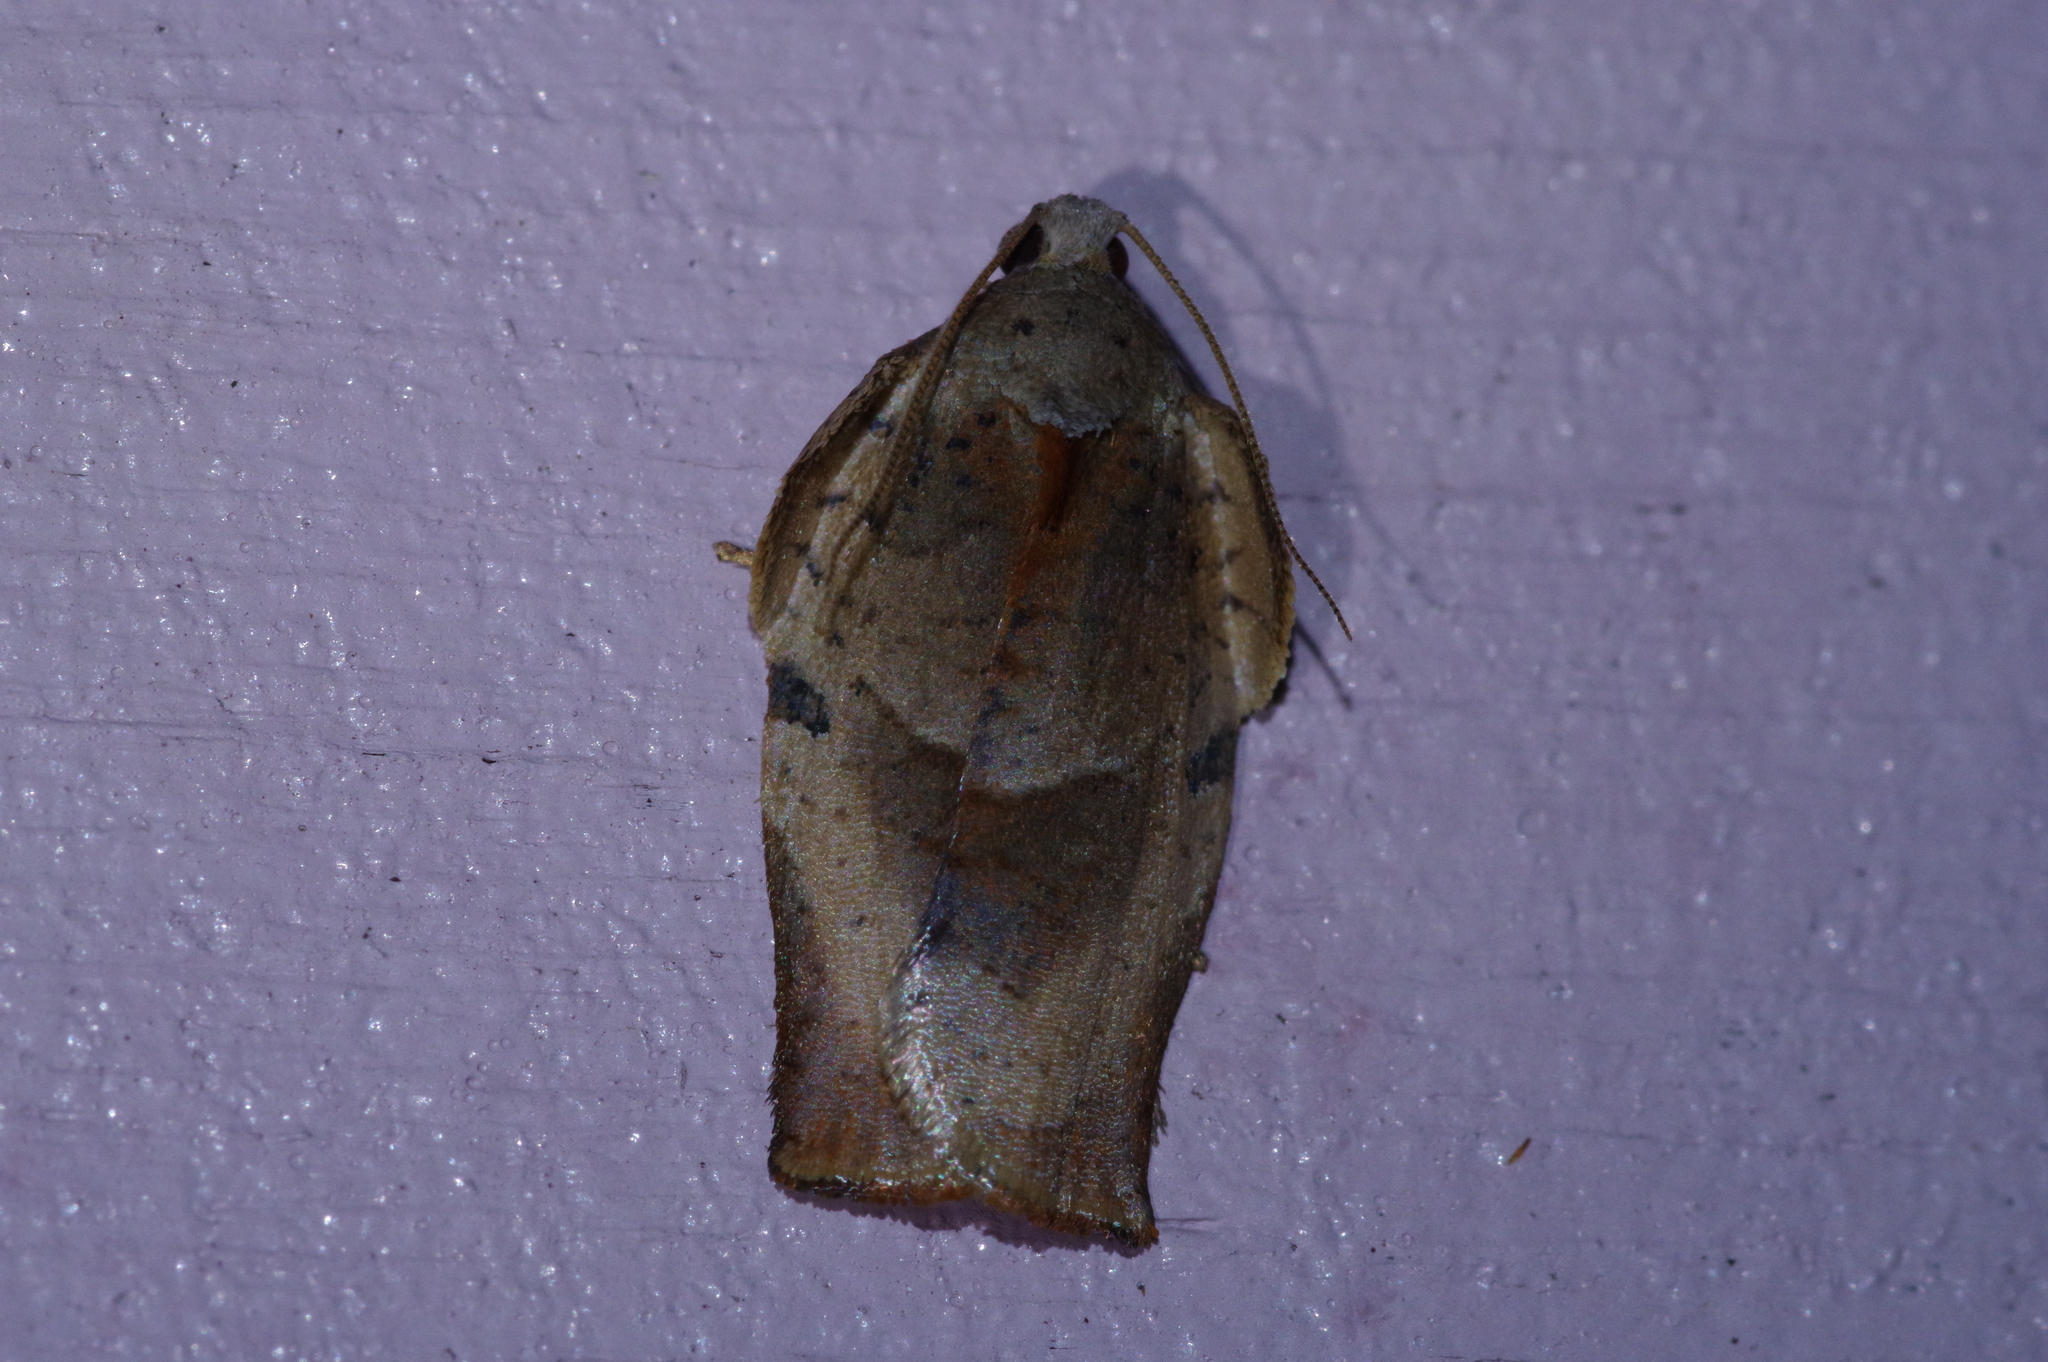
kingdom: Animalia
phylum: Arthropoda
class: Insecta
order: Lepidoptera
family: Tortricidae
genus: Homona
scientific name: Homona magnanima
